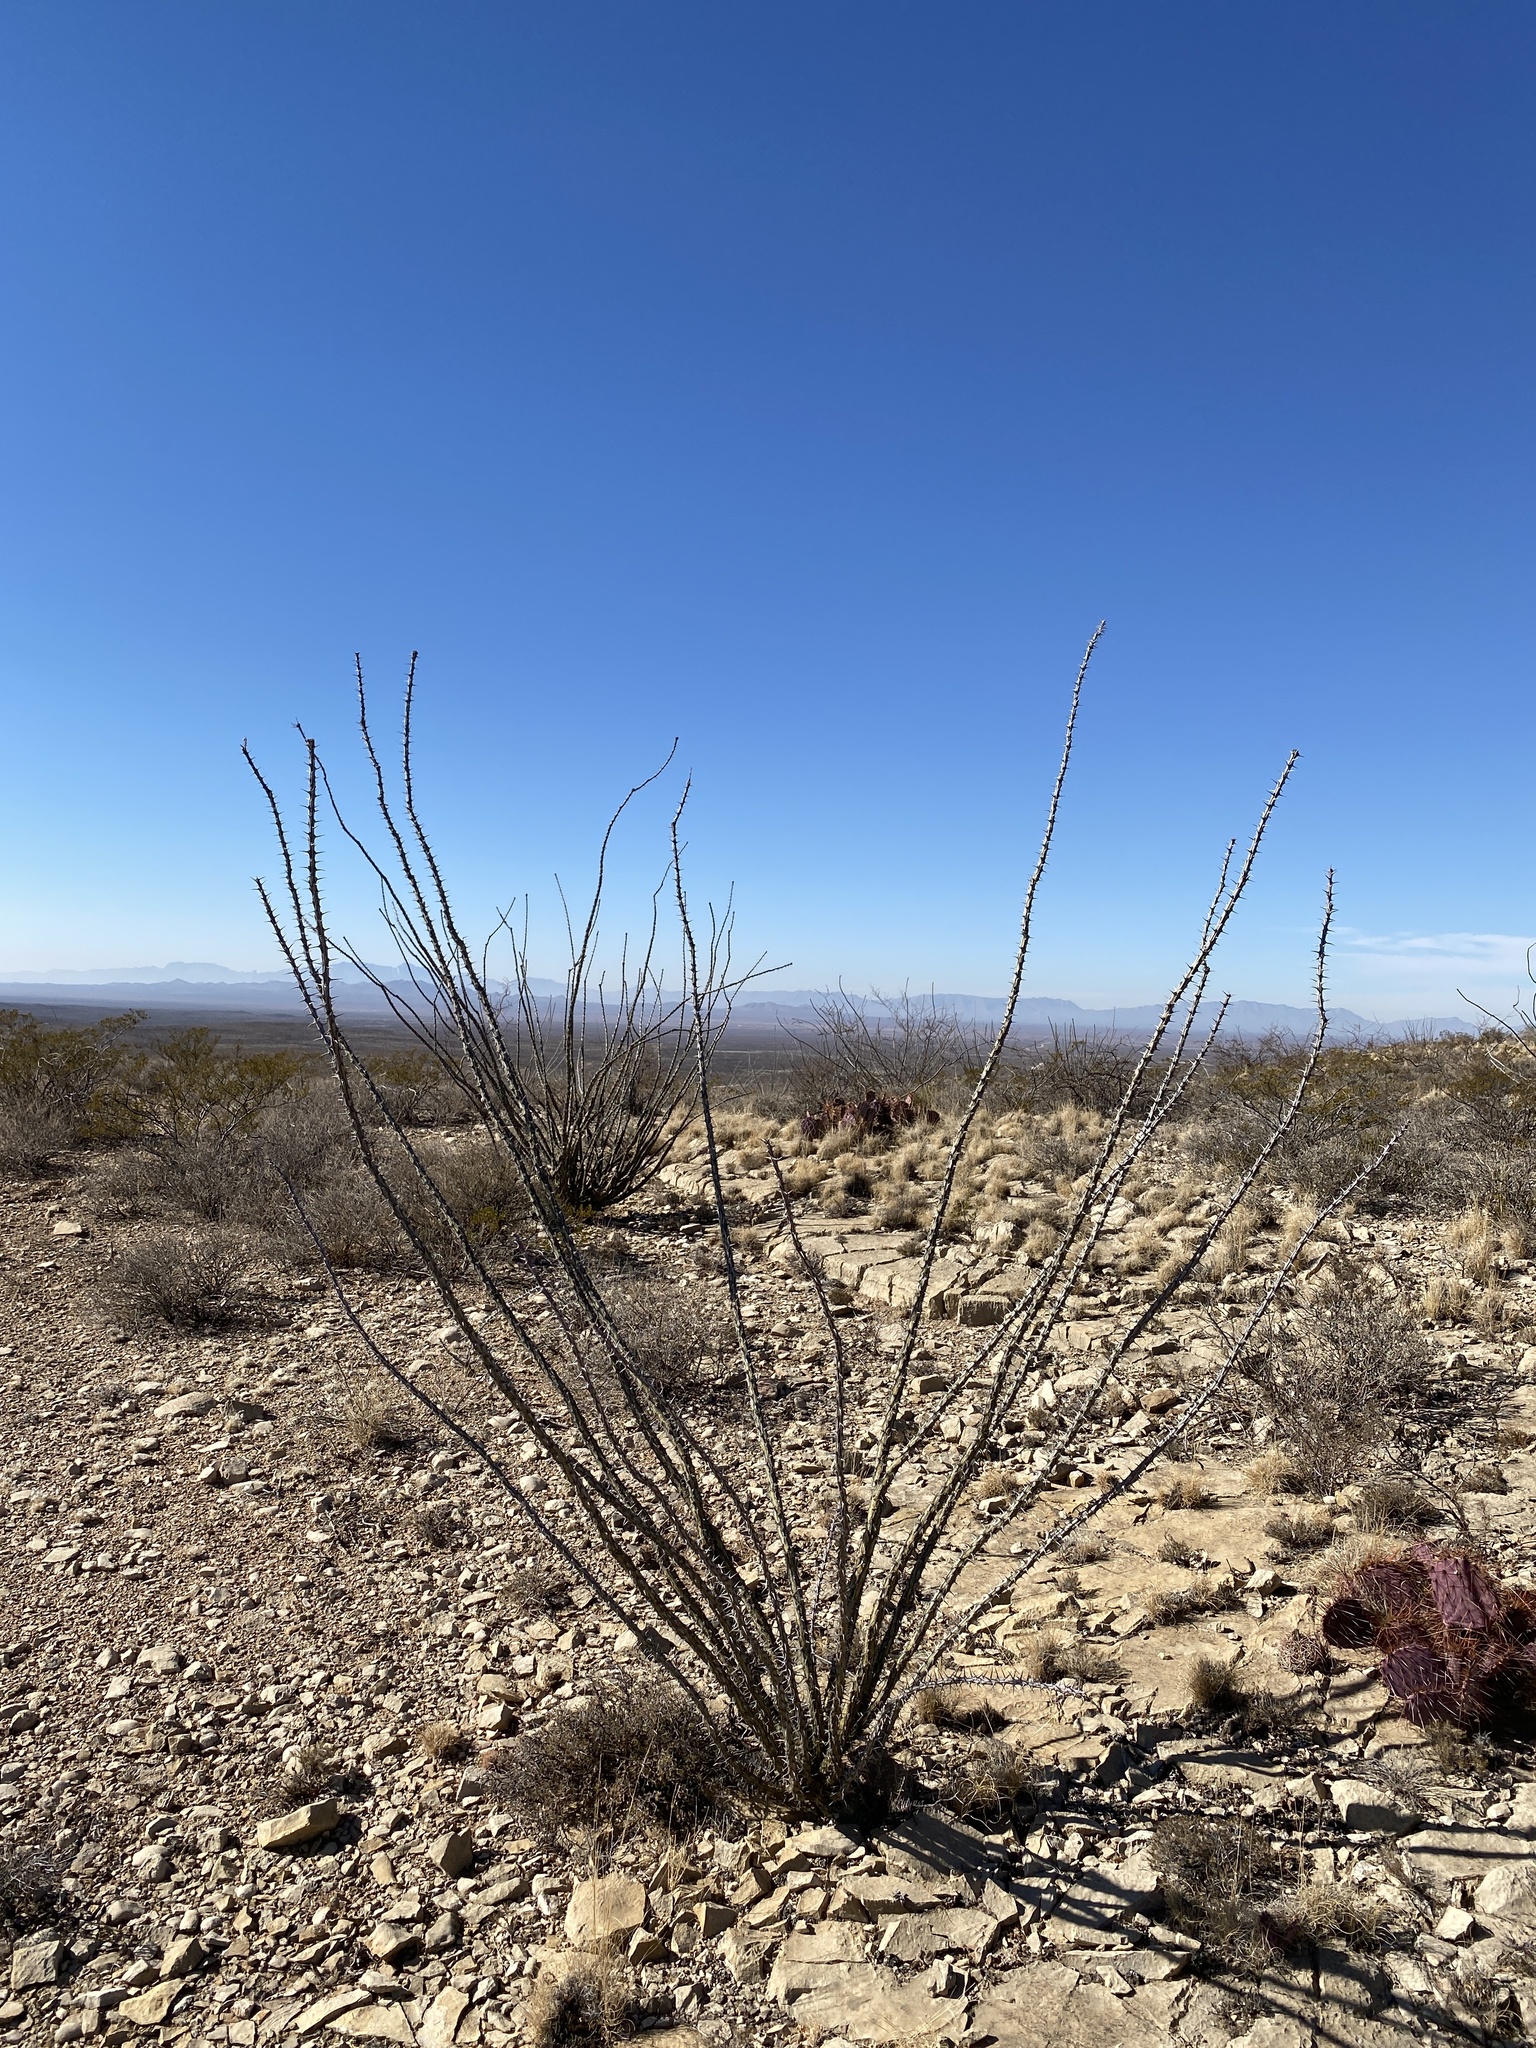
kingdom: Plantae
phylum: Tracheophyta
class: Magnoliopsida
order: Ericales
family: Fouquieriaceae
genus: Fouquieria
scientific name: Fouquieria splendens
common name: Vine-cactus
